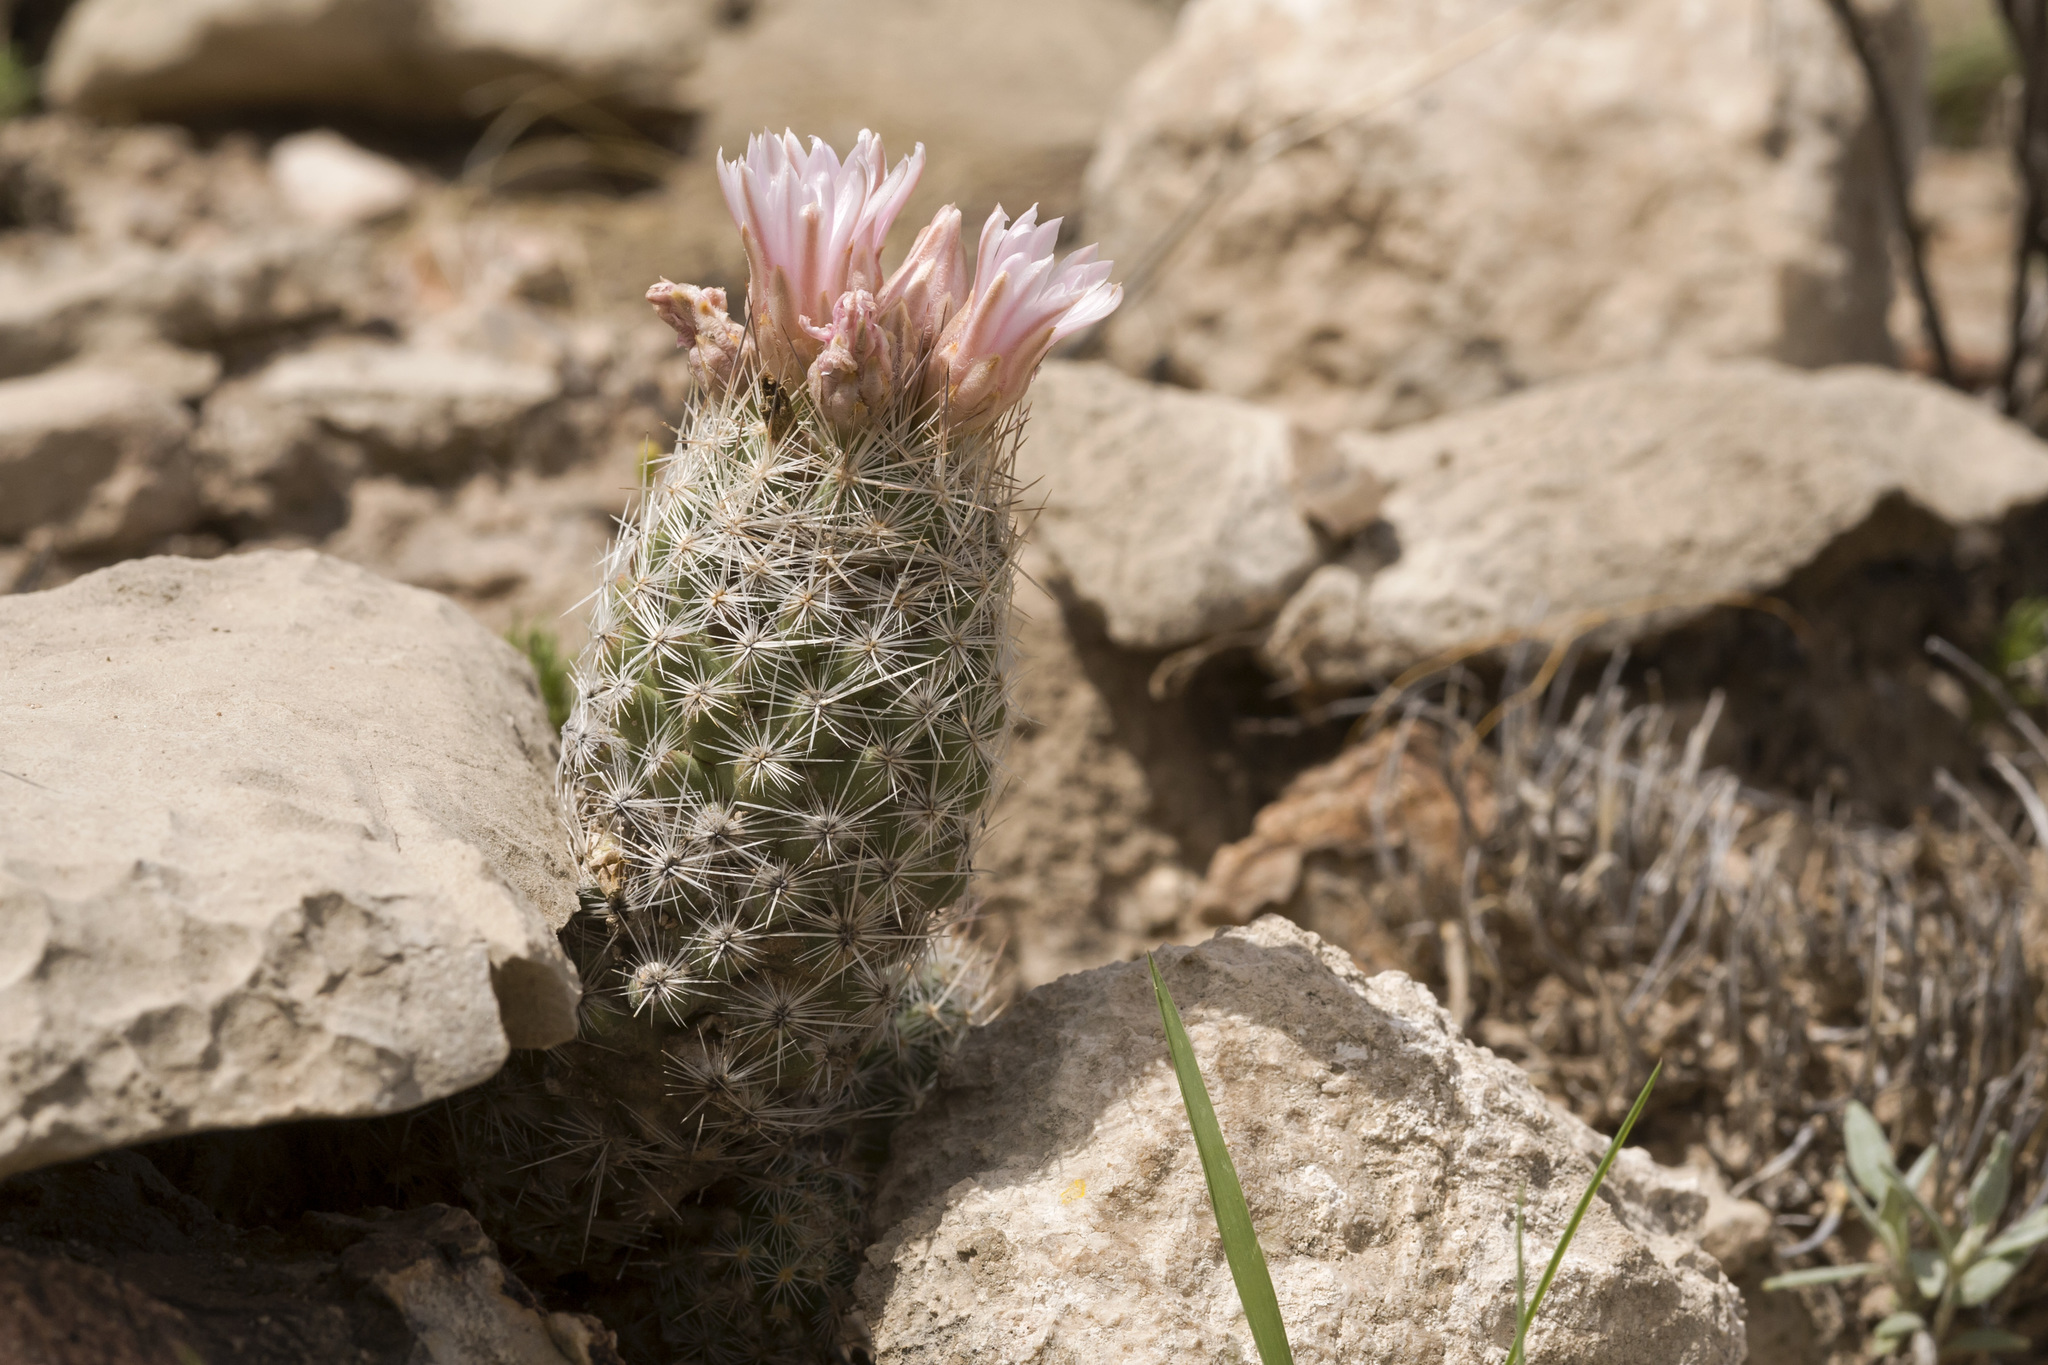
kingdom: Plantae
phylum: Tracheophyta
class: Magnoliopsida
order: Caryophyllales
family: Cactaceae
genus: Pelecyphora
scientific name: Pelecyphora tuberculosa
